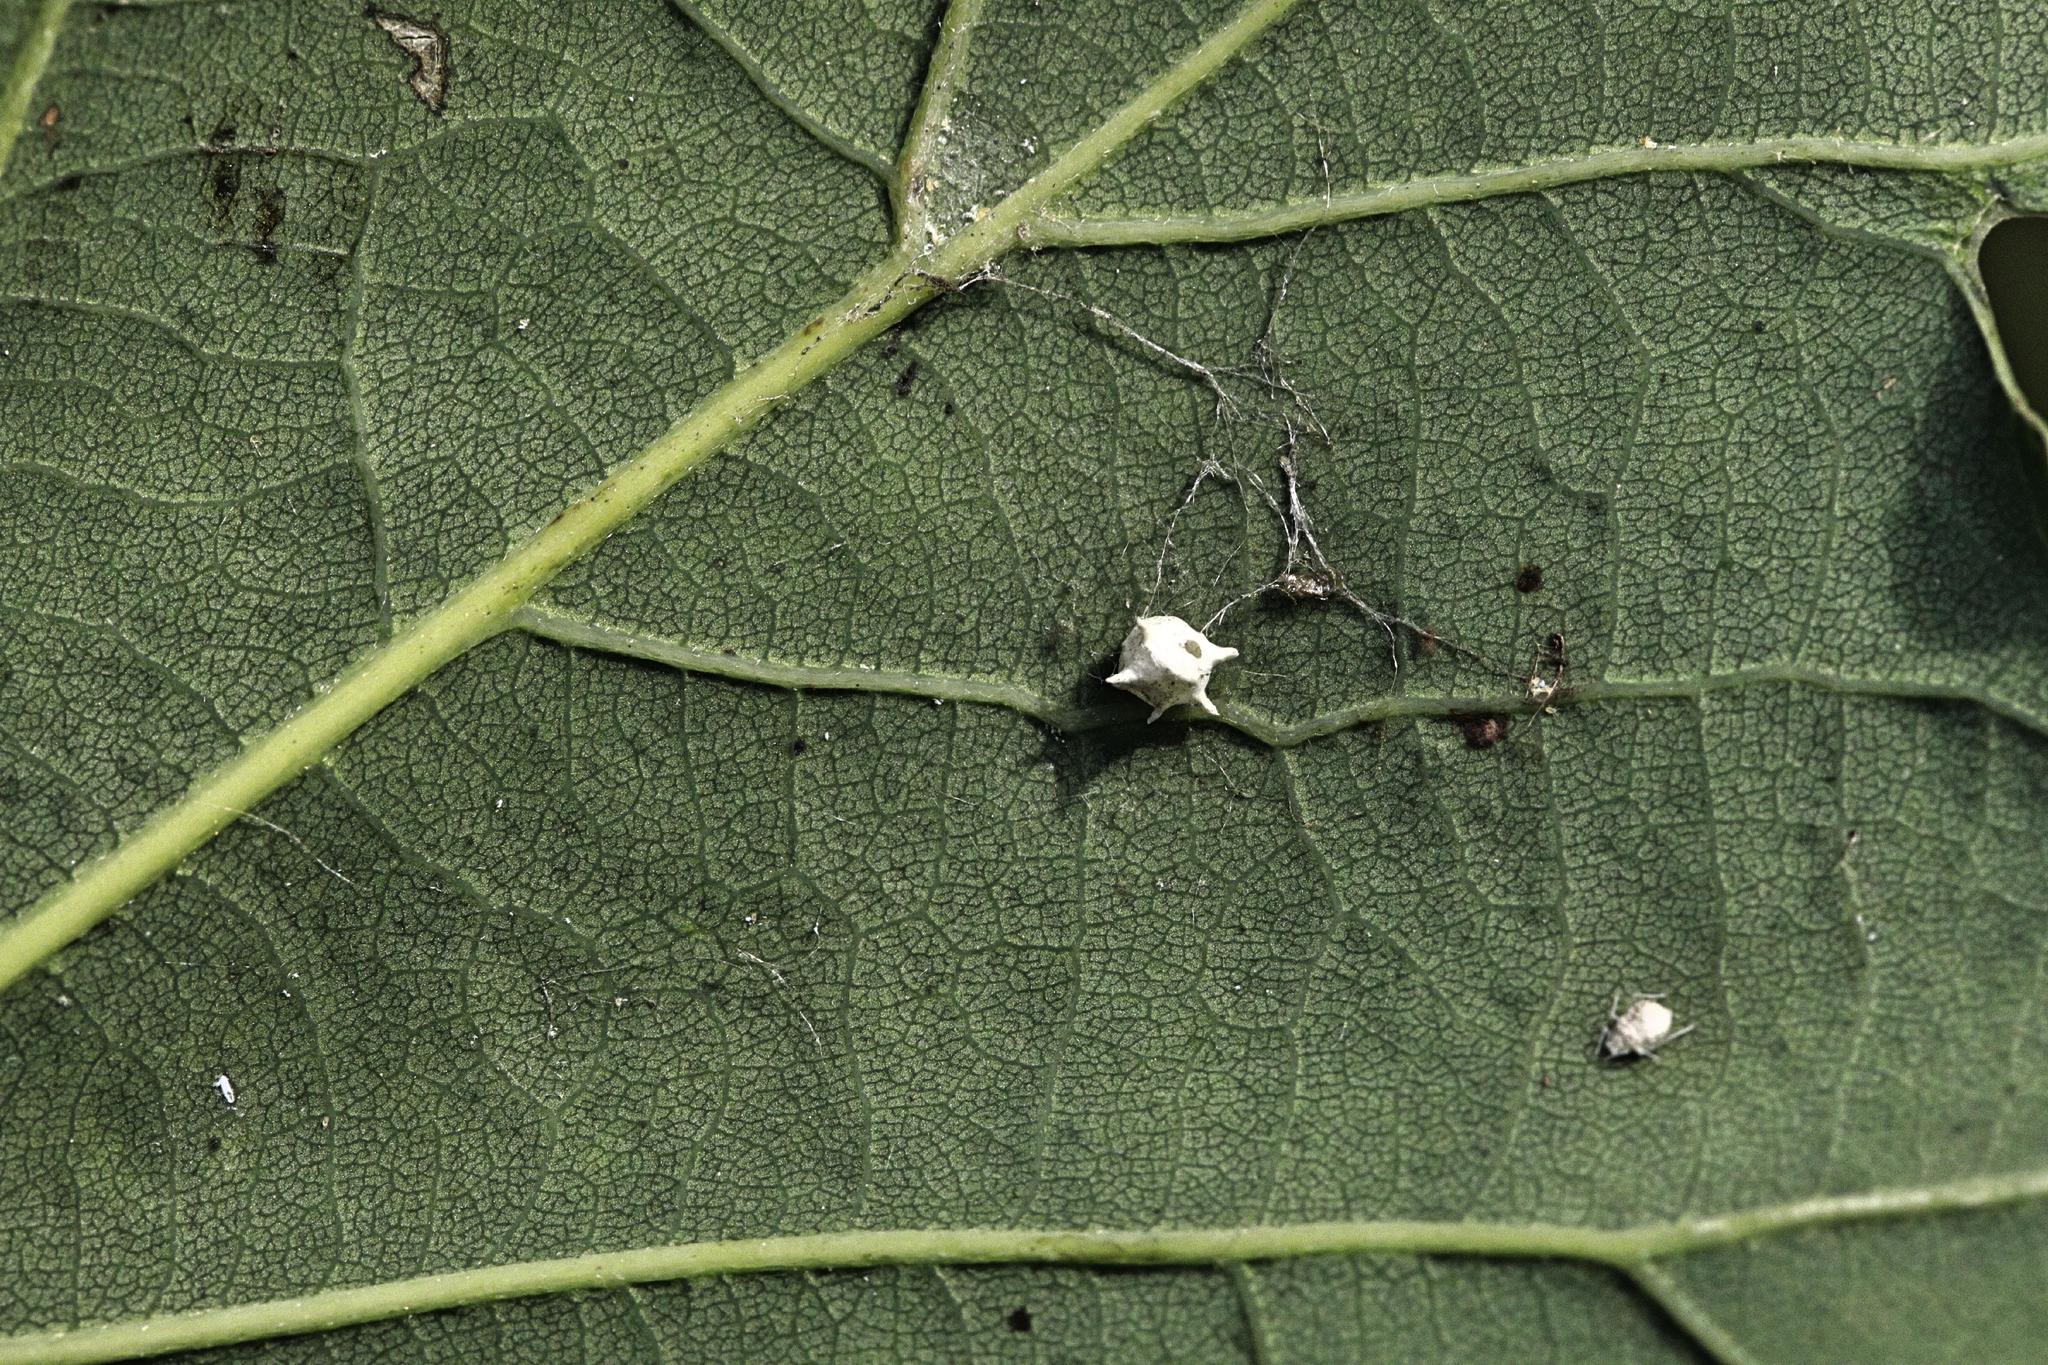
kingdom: Animalia
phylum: Arthropoda
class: Arachnida
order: Araneae
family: Theridiidae
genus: Paidiscura
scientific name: Paidiscura pallens
